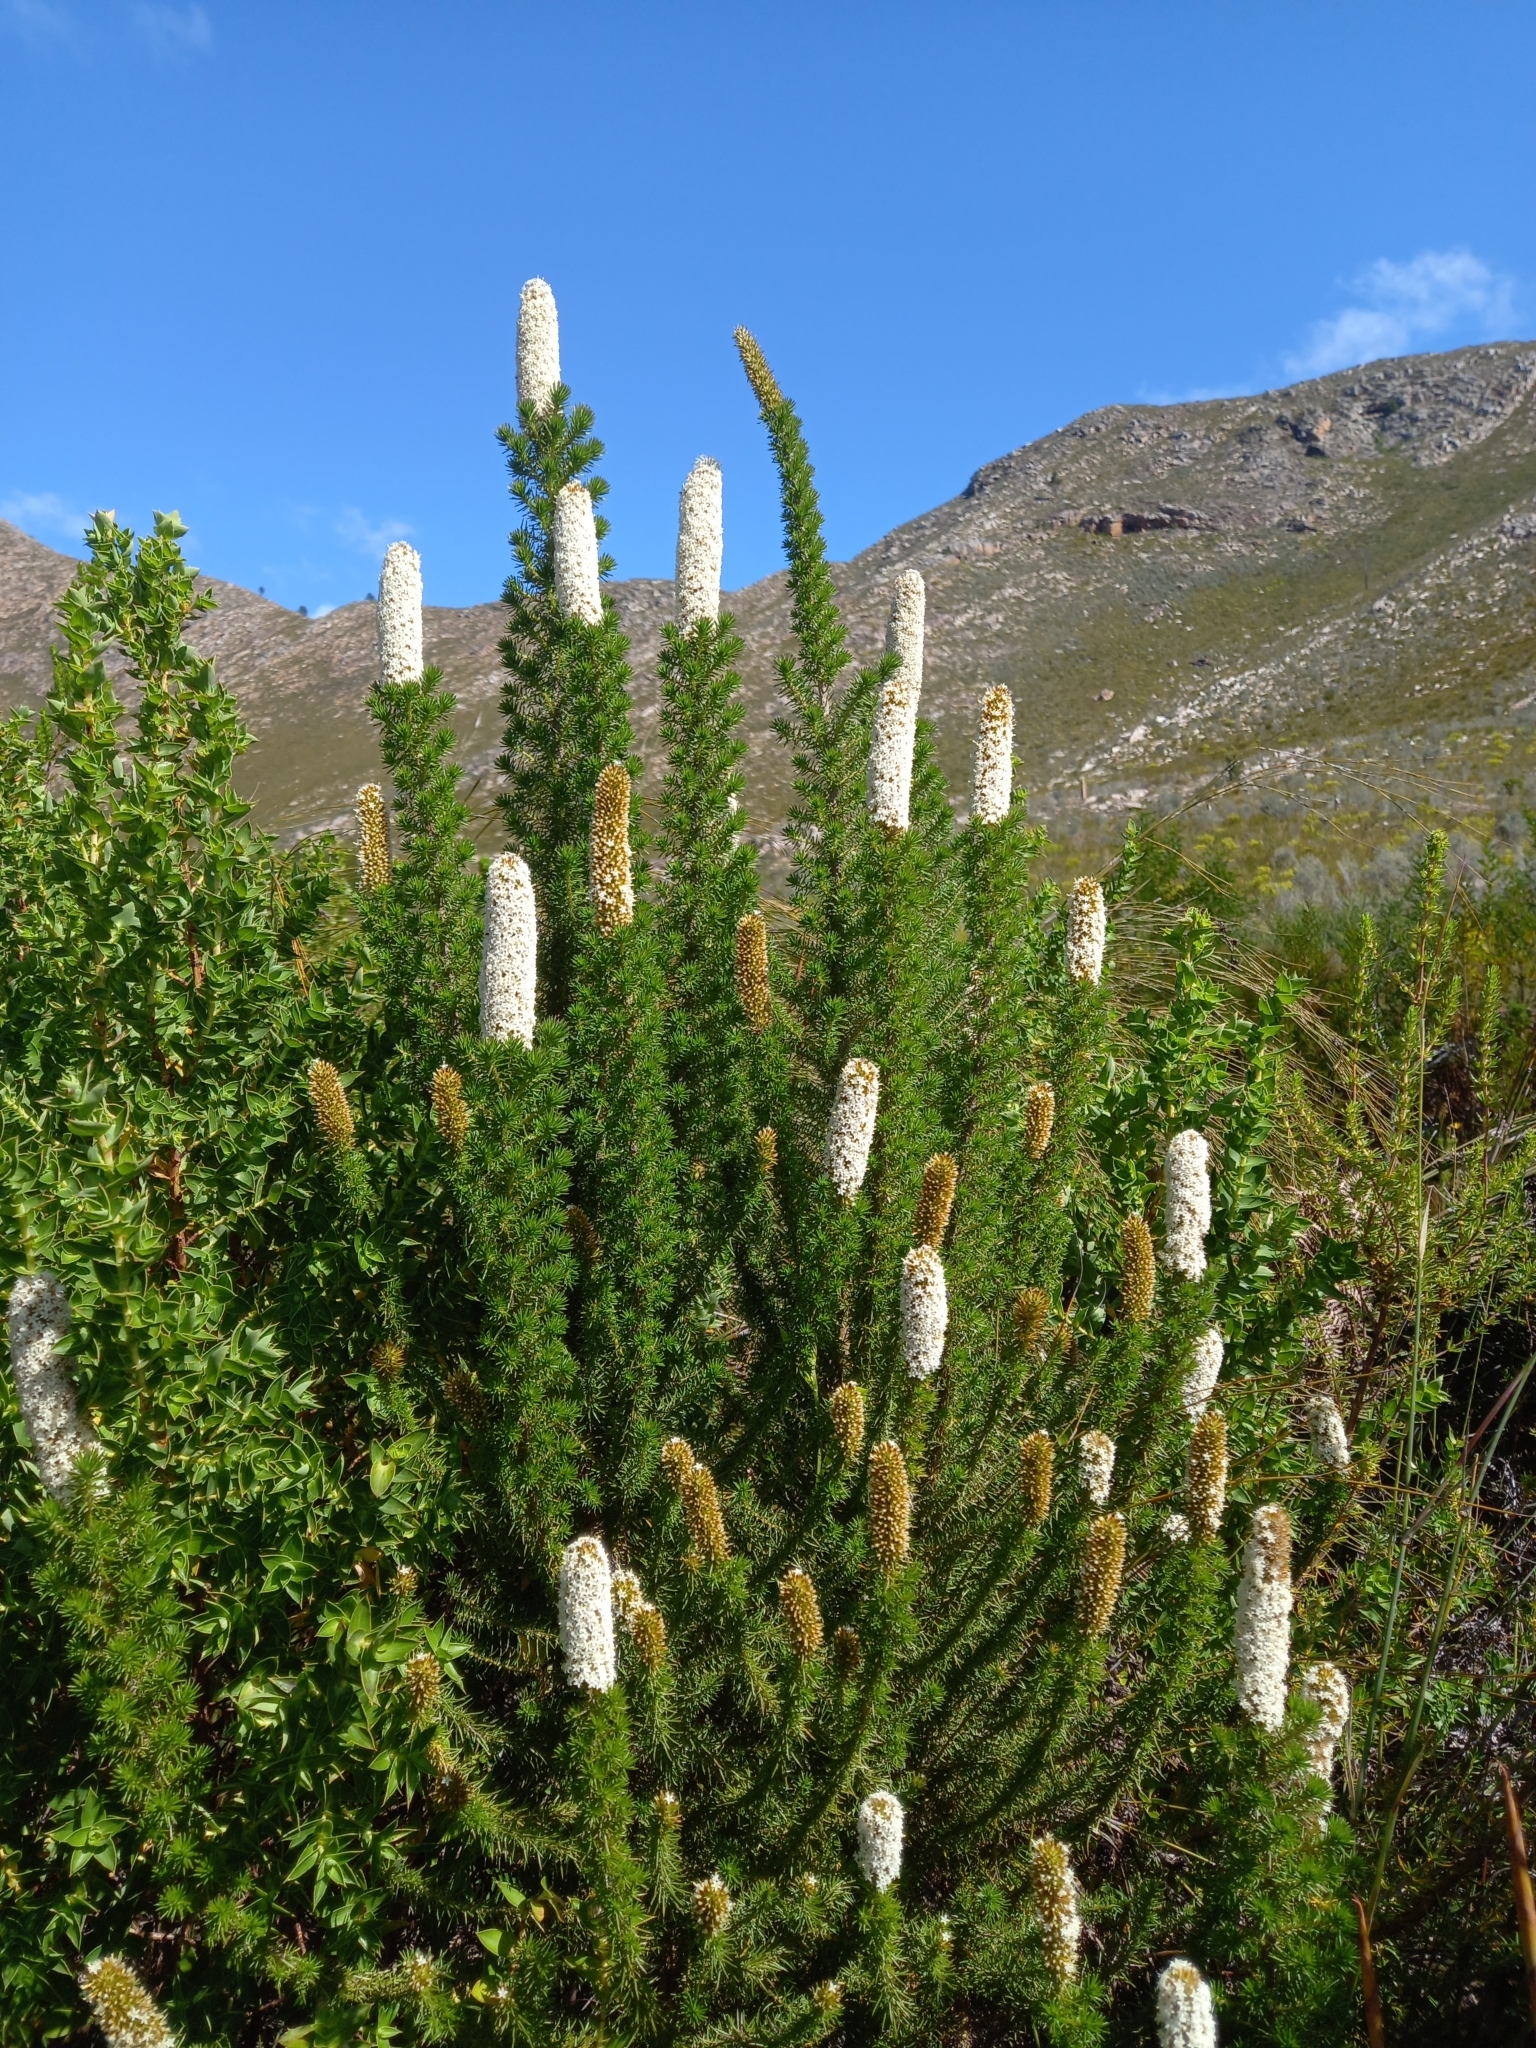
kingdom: Plantae
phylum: Tracheophyta
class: Magnoliopsida
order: Asterales
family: Asteraceae
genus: Stoebe
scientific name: Stoebe alopecuroides
